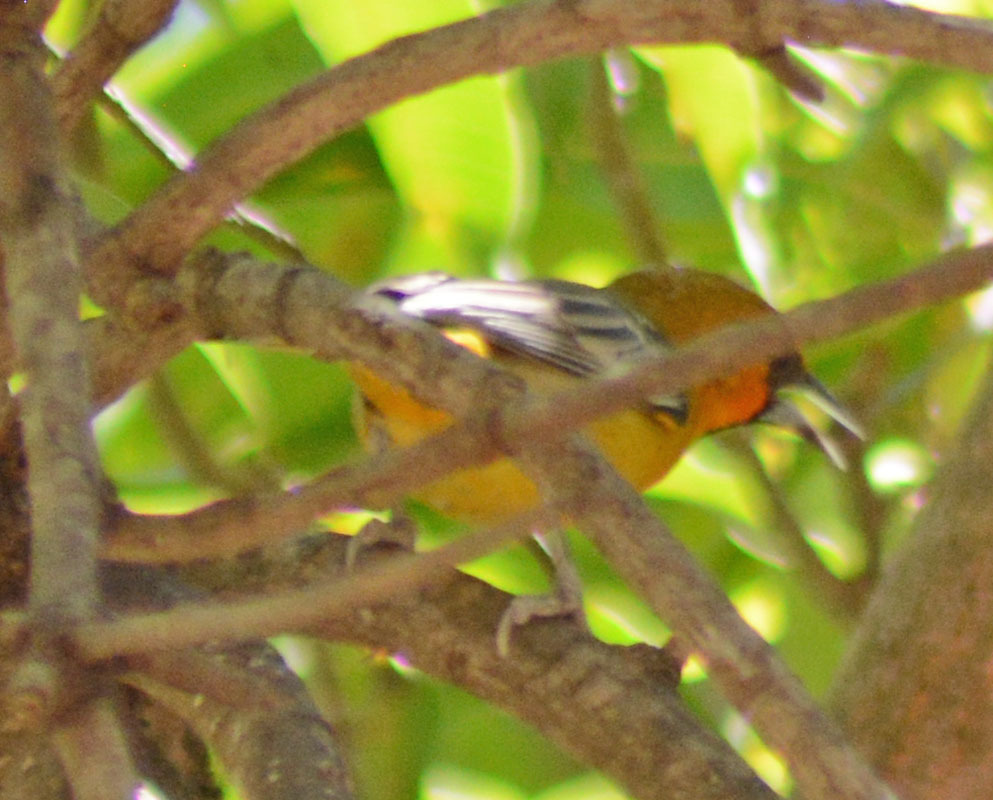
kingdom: Animalia
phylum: Chordata
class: Aves
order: Passeriformes
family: Icteridae
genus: Icterus
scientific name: Icterus pustulatus
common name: Streak-backed oriole
